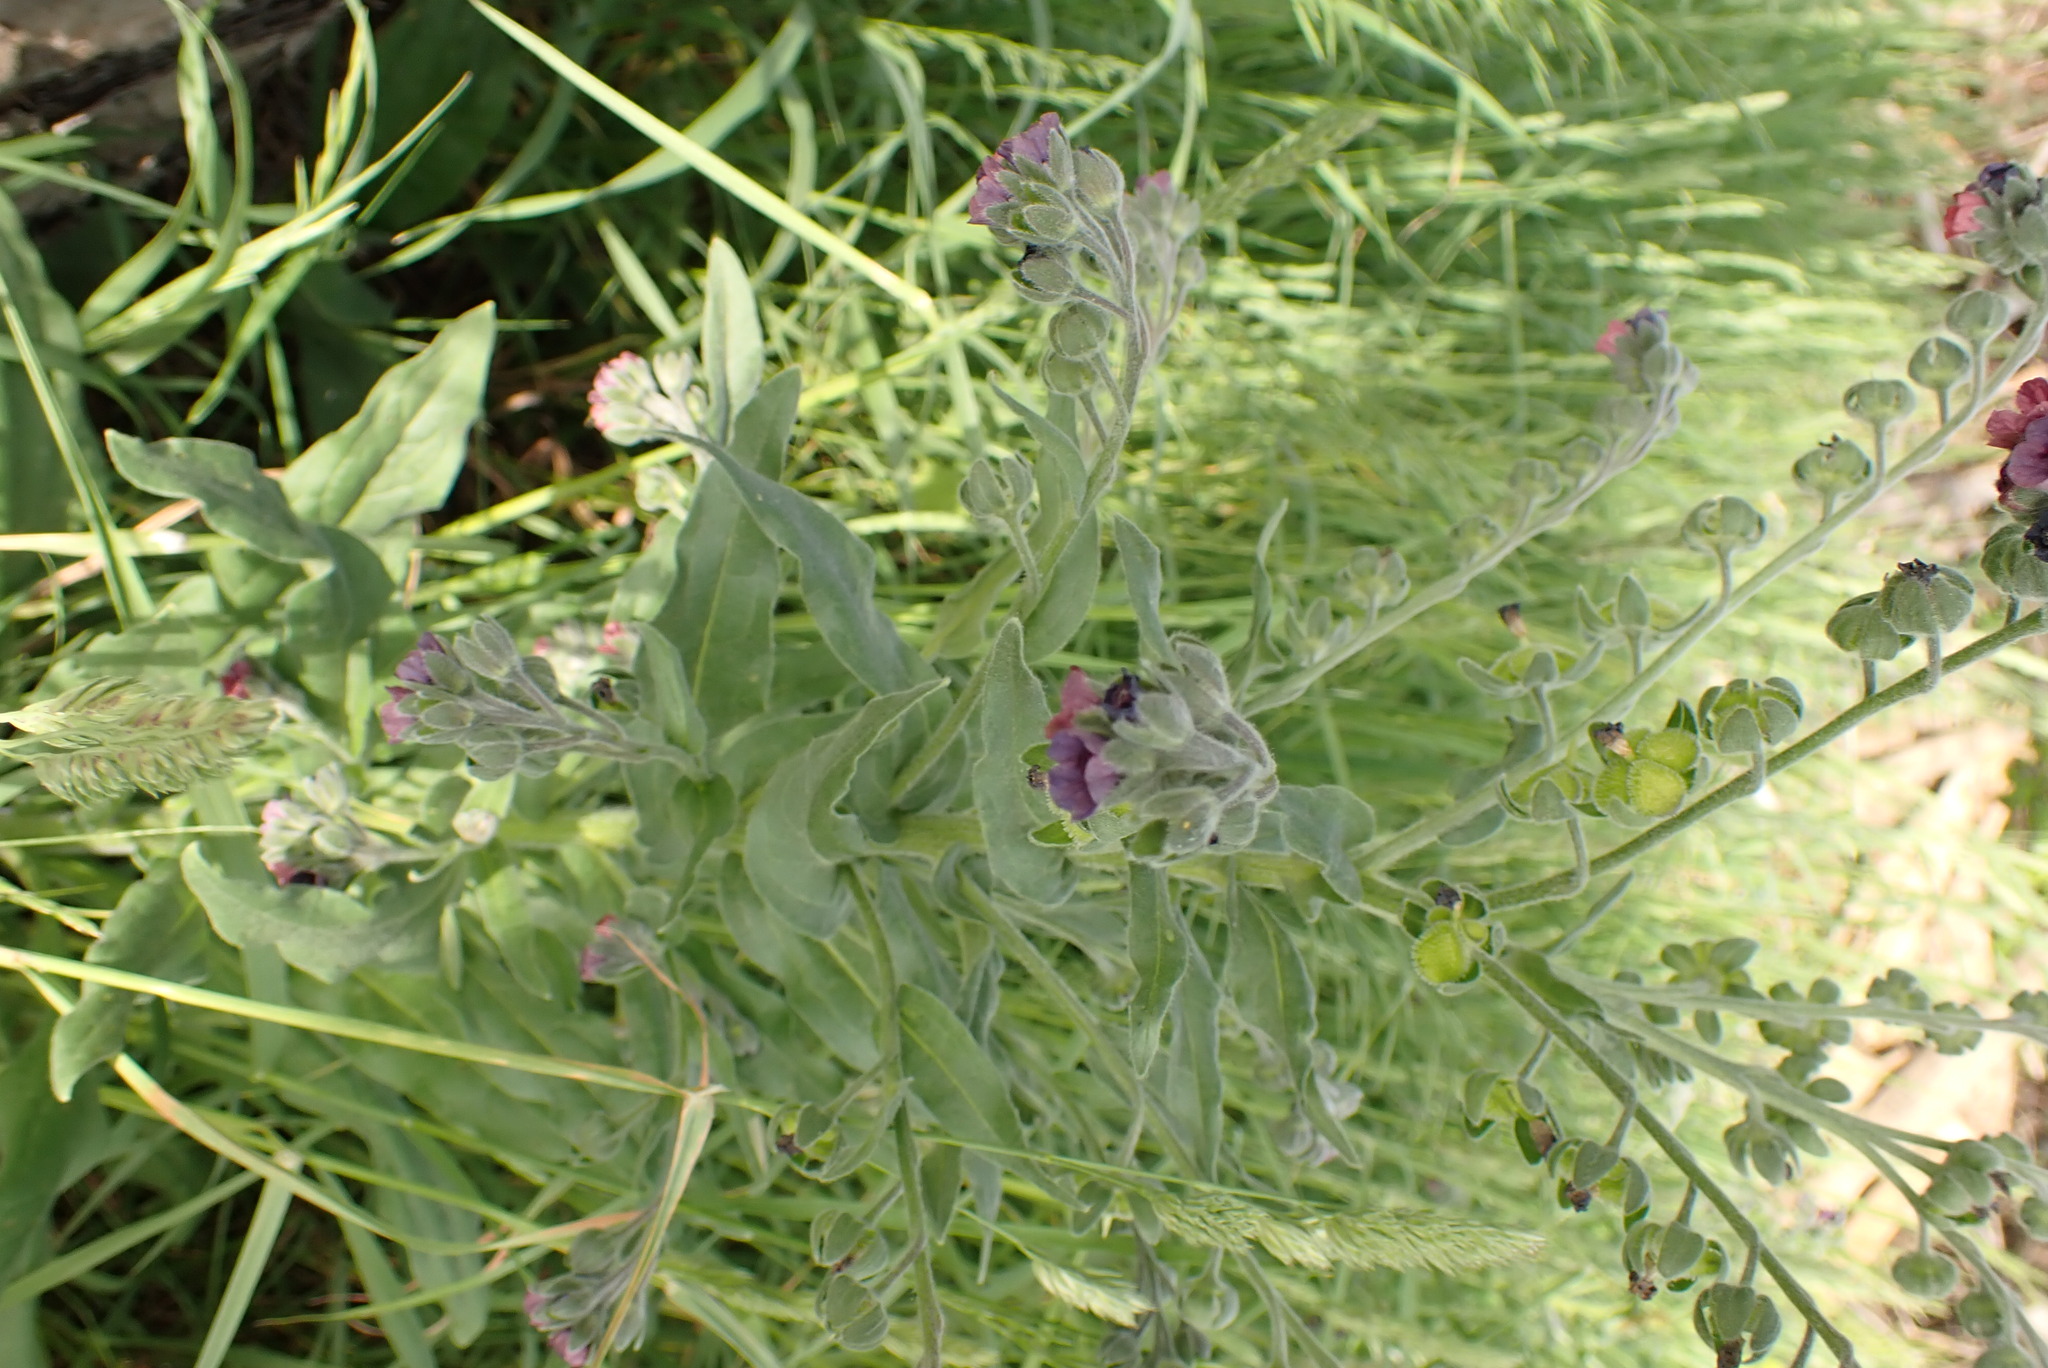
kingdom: Plantae
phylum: Tracheophyta
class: Magnoliopsida
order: Boraginales
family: Boraginaceae
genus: Cynoglossum
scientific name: Cynoglossum officinale
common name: Hound's-tongue
